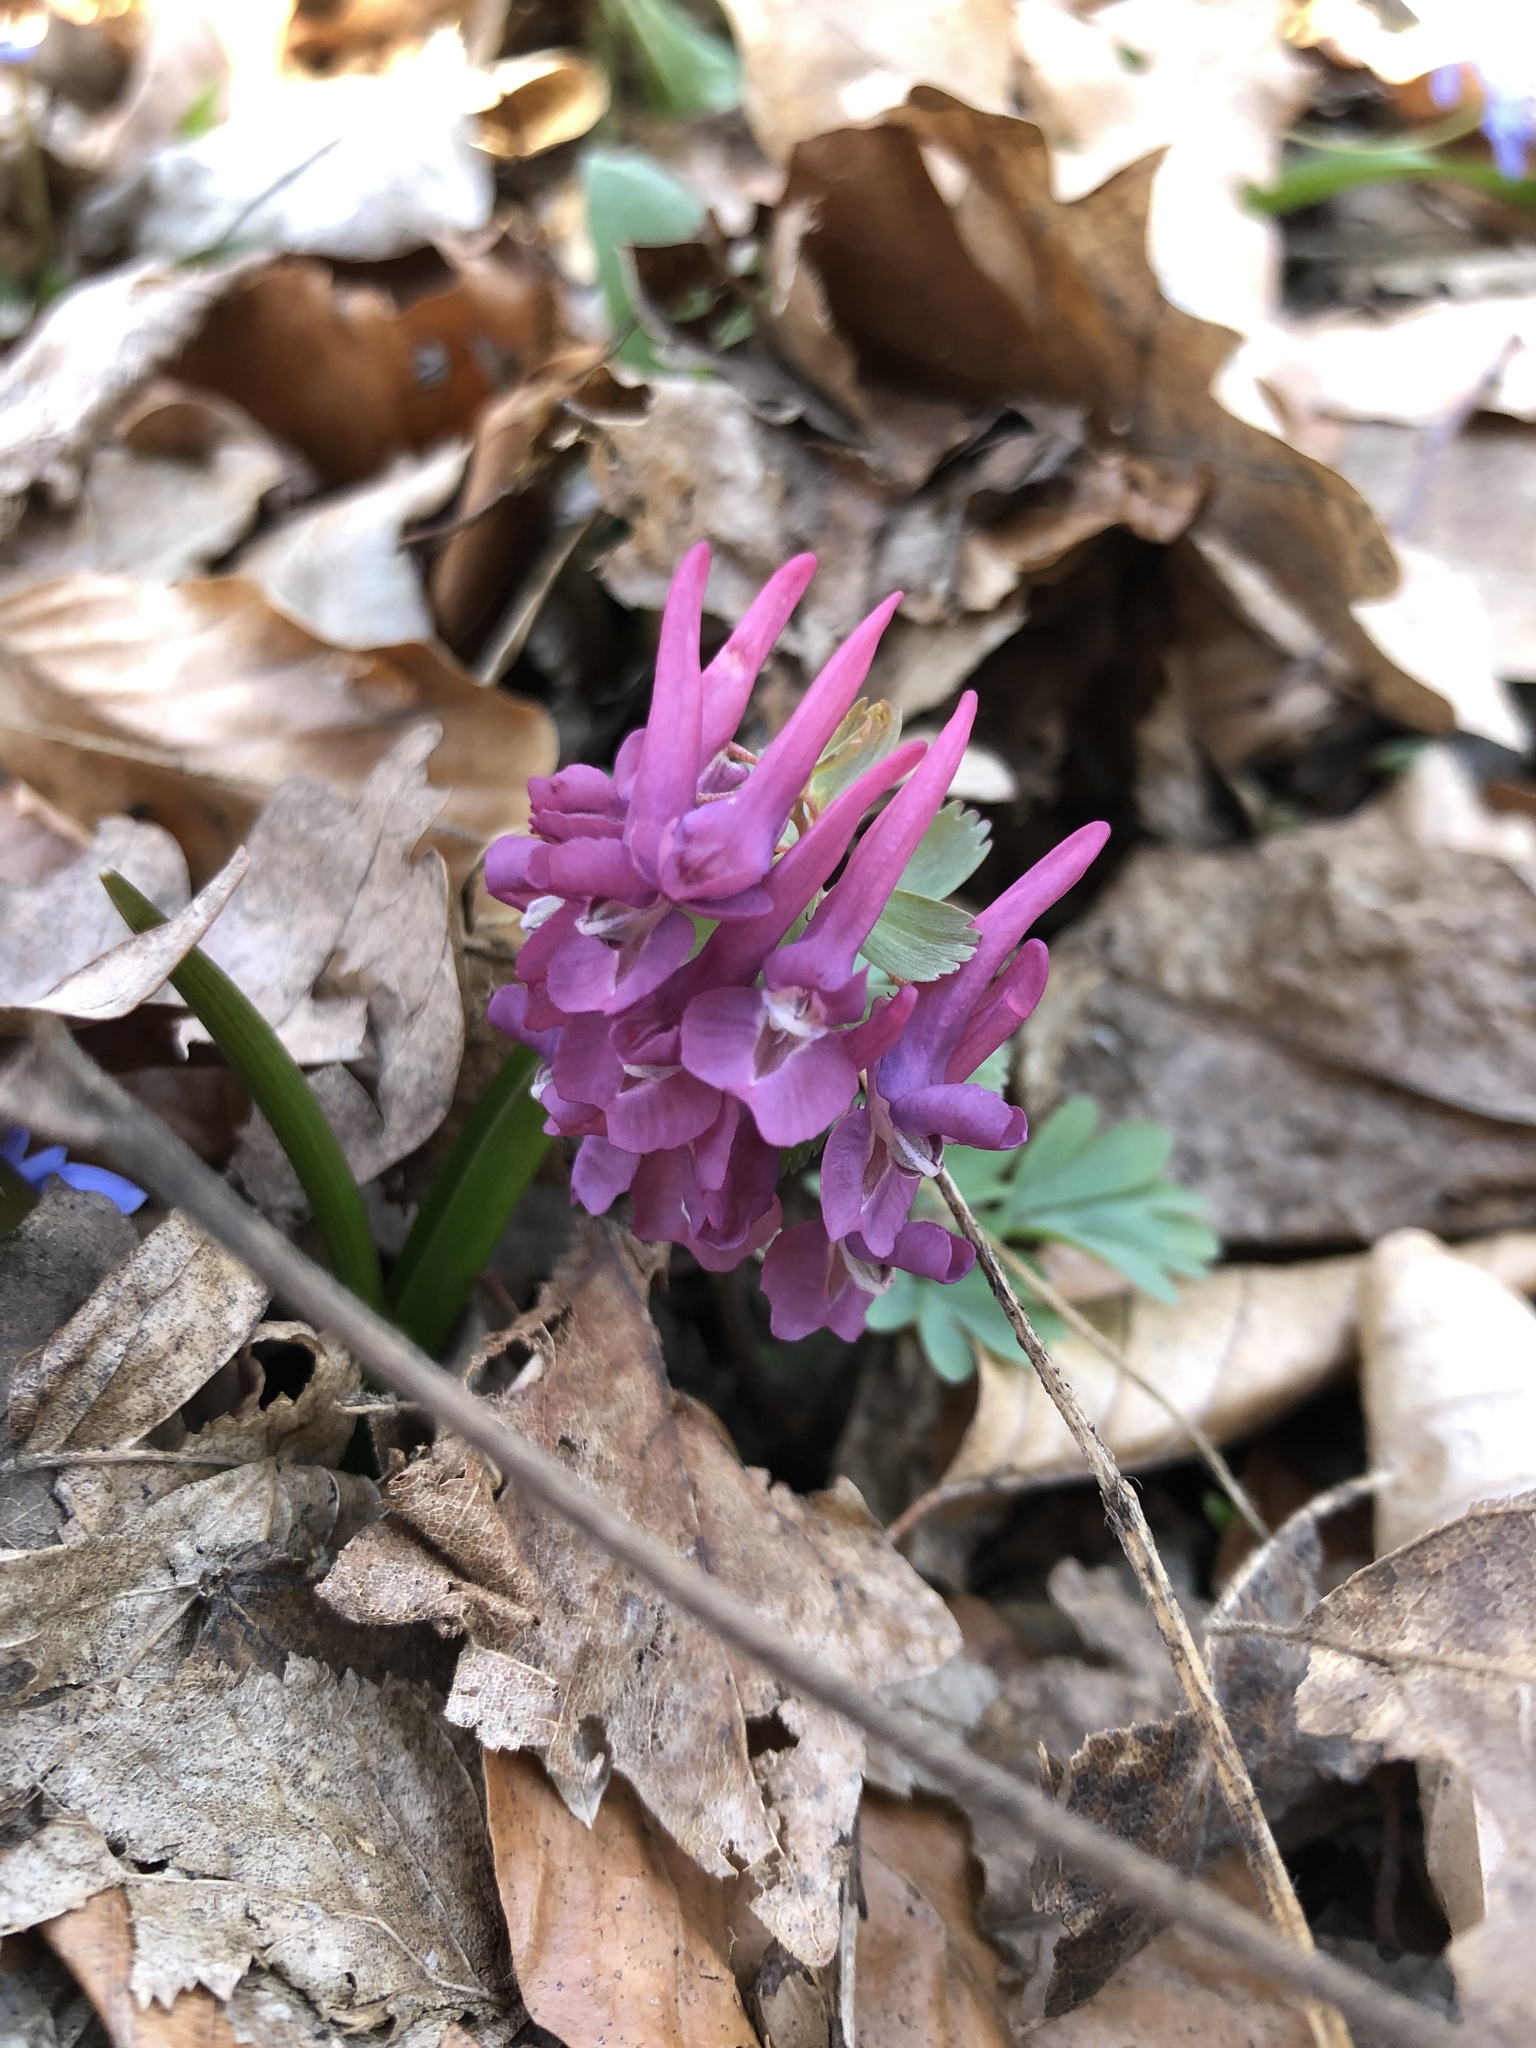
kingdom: Plantae
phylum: Tracheophyta
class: Magnoliopsida
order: Ranunculales
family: Papaveraceae
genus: Corydalis
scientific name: Corydalis solida
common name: Bird-in-a-bush
